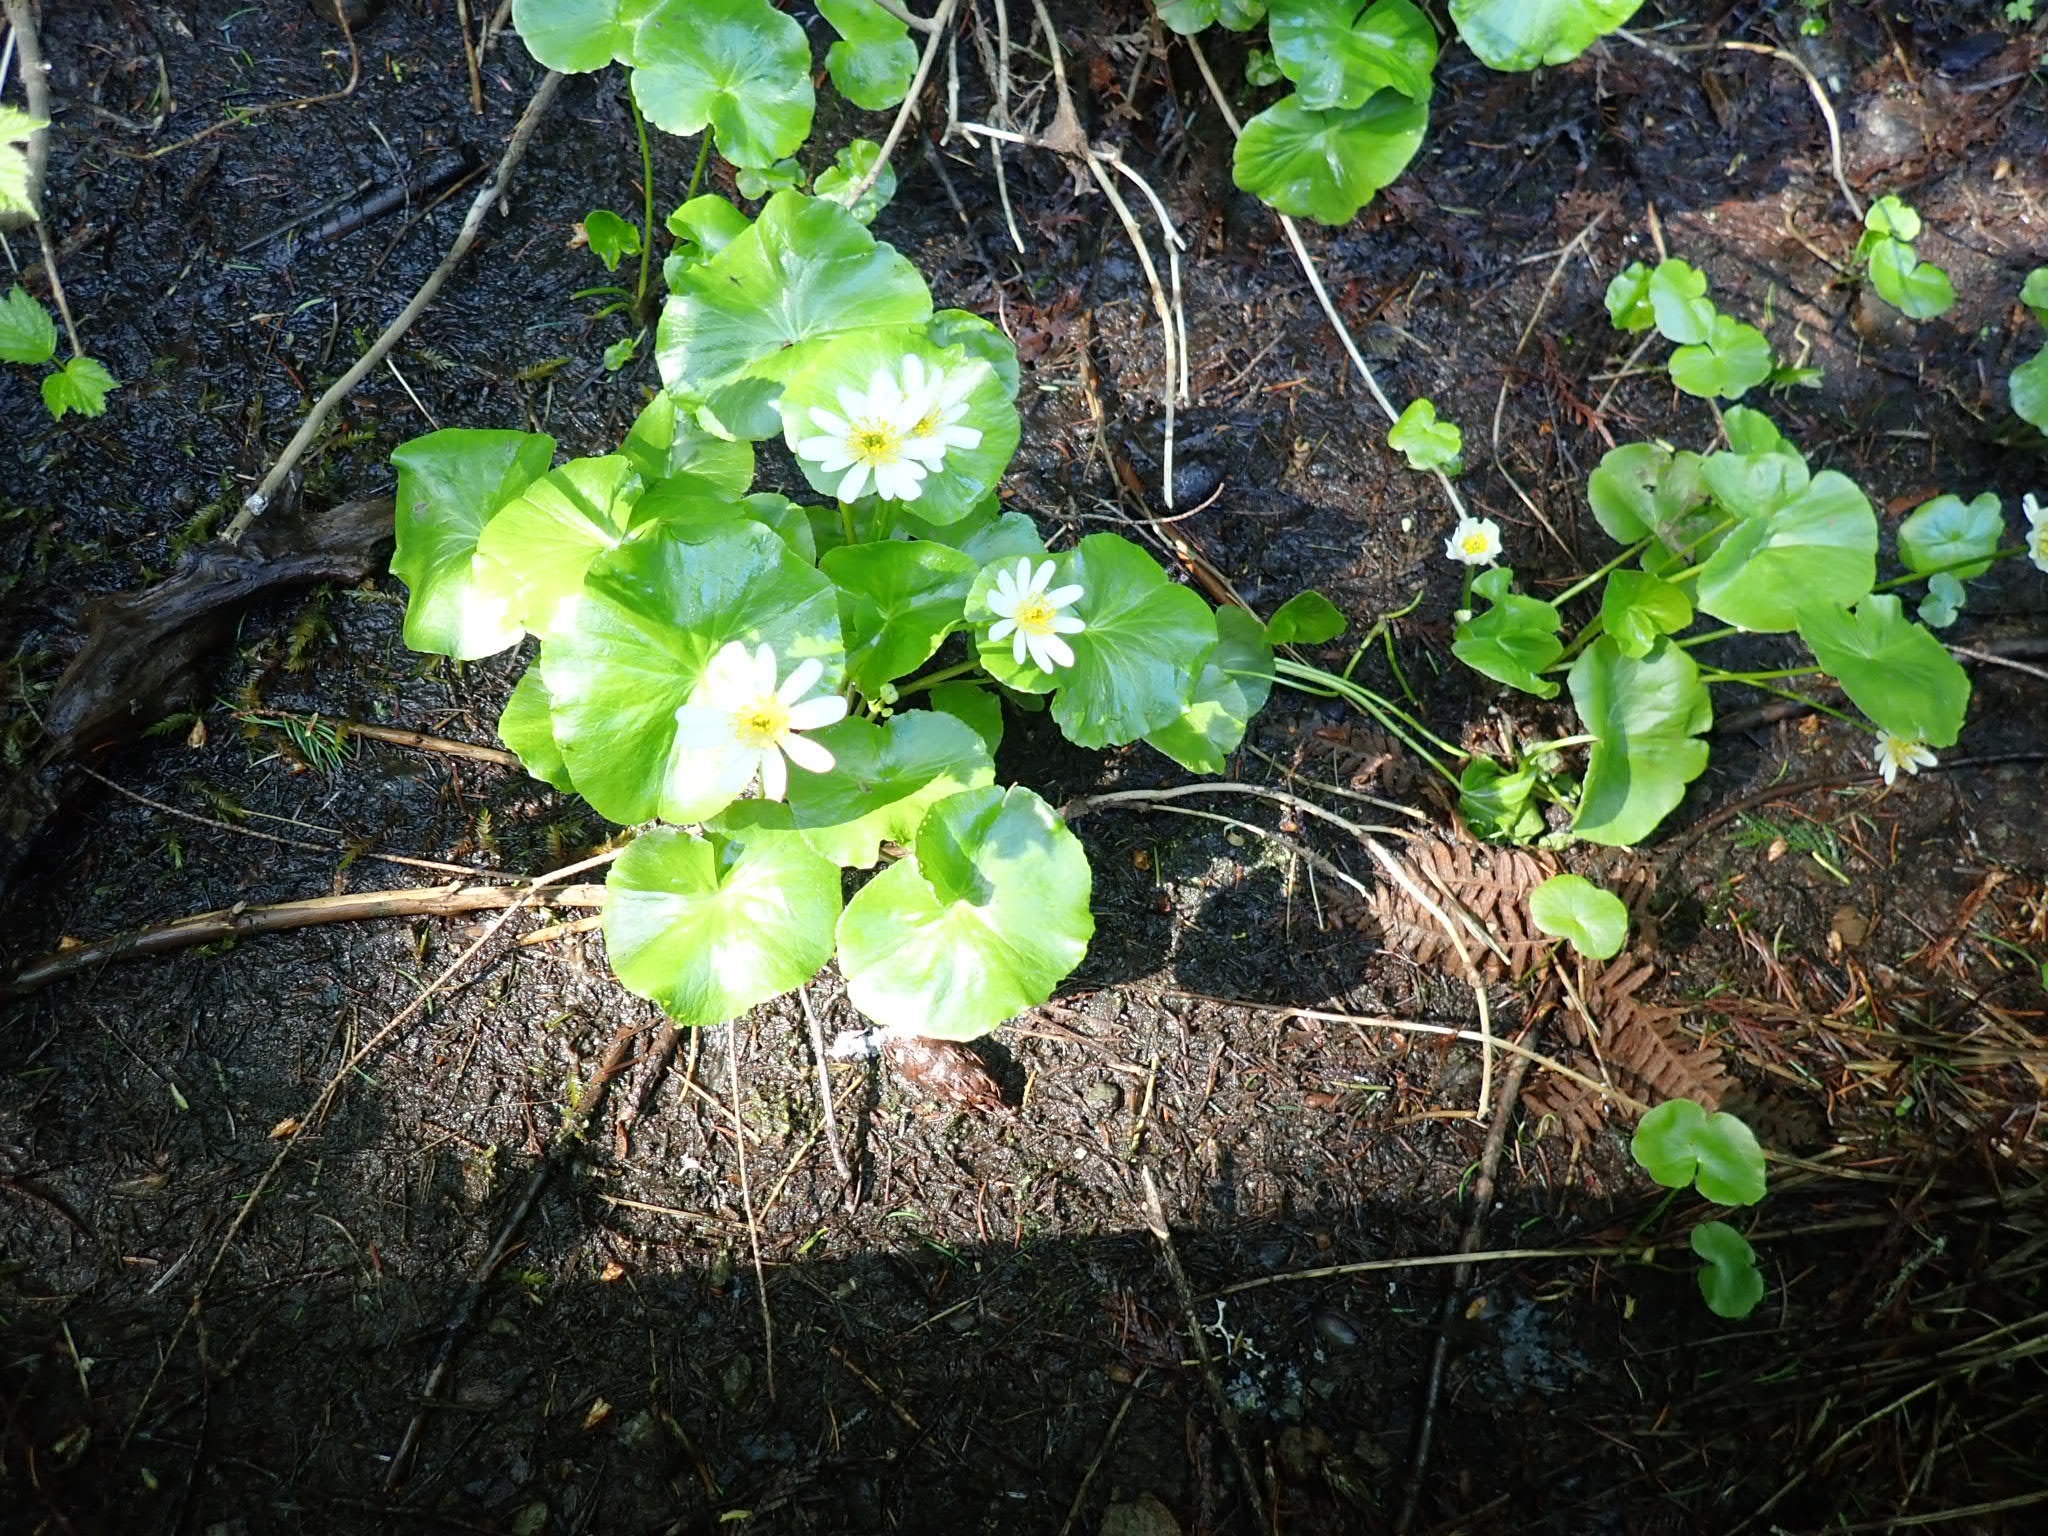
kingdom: Plantae
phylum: Tracheophyta
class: Magnoliopsida
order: Ranunculales
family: Ranunculaceae
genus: Caltha
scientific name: Caltha leptosepala
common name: Elkslip
